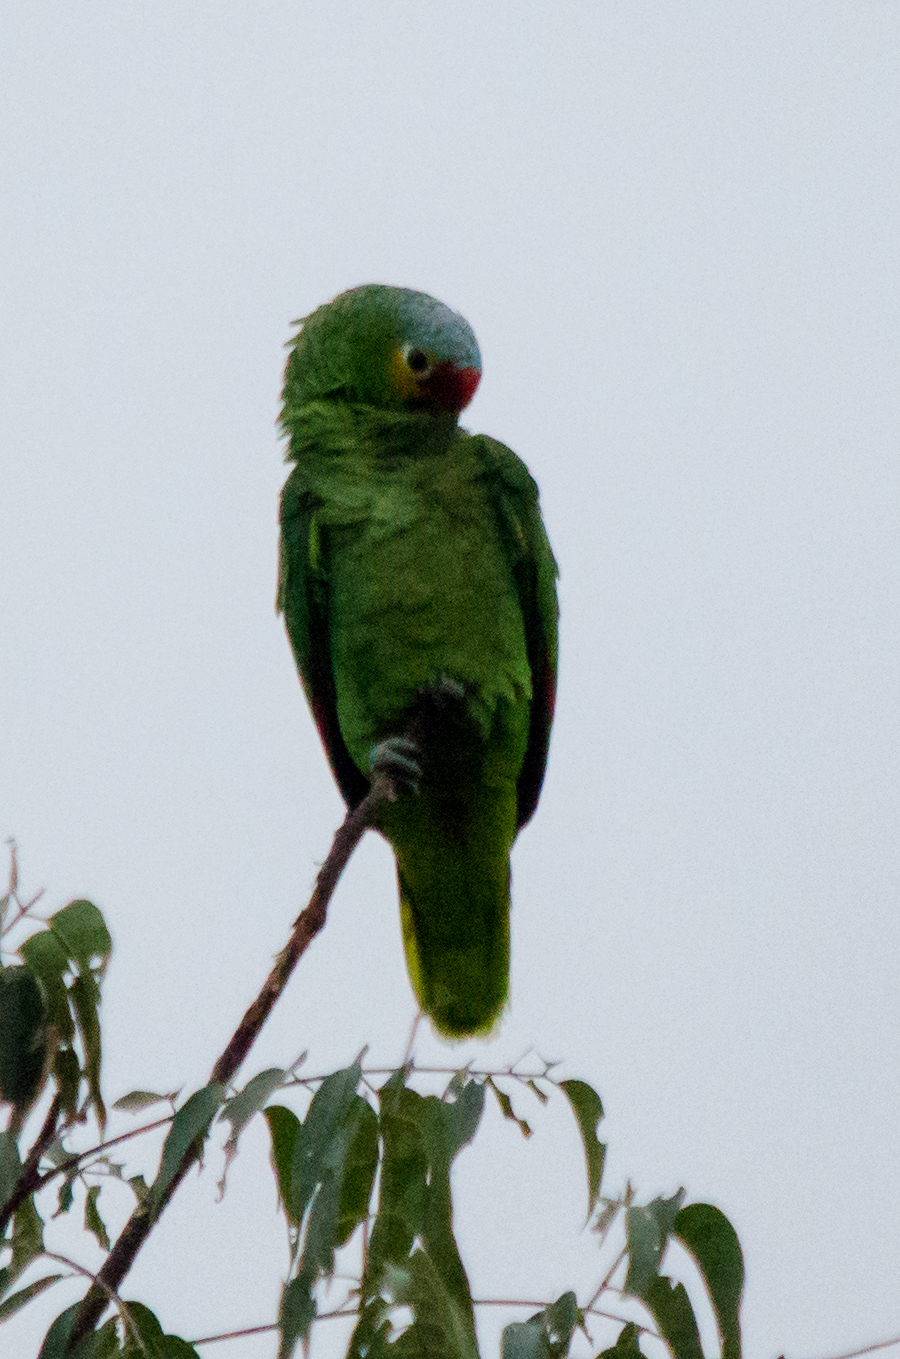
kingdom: Animalia
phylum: Chordata
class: Aves
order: Psittaciformes
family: Psittacidae
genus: Amazona
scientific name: Amazona autumnalis
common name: Red-lored amazon
